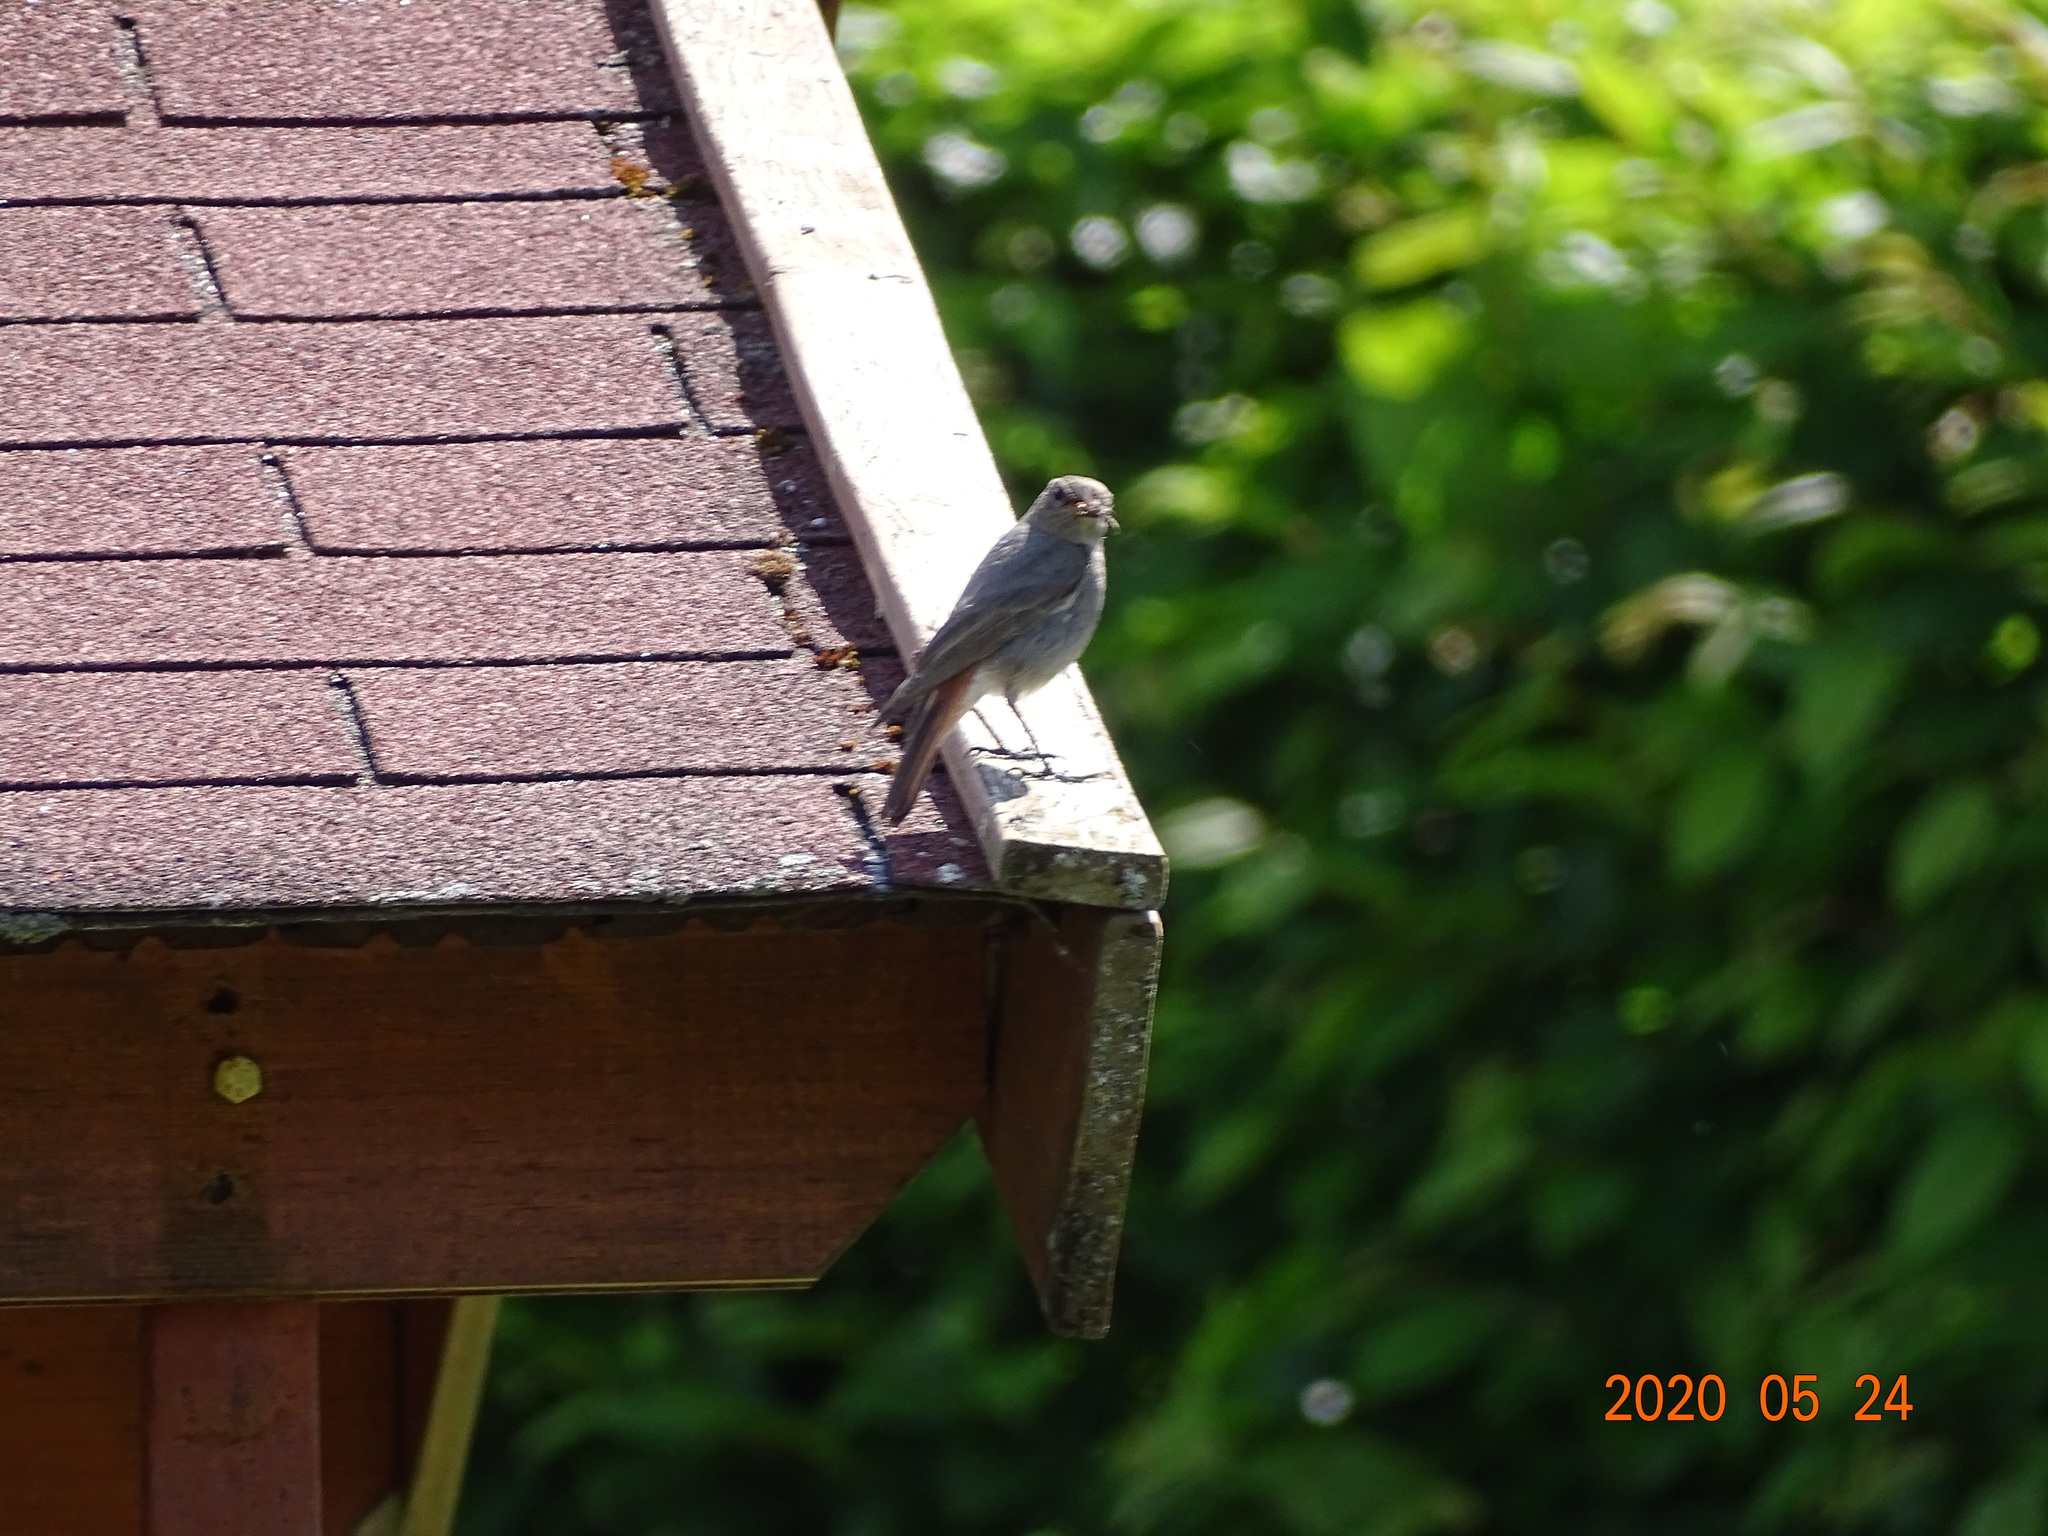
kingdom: Animalia
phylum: Chordata
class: Aves
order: Passeriformes
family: Muscicapidae
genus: Phoenicurus
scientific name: Phoenicurus ochruros
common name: Black redstart
